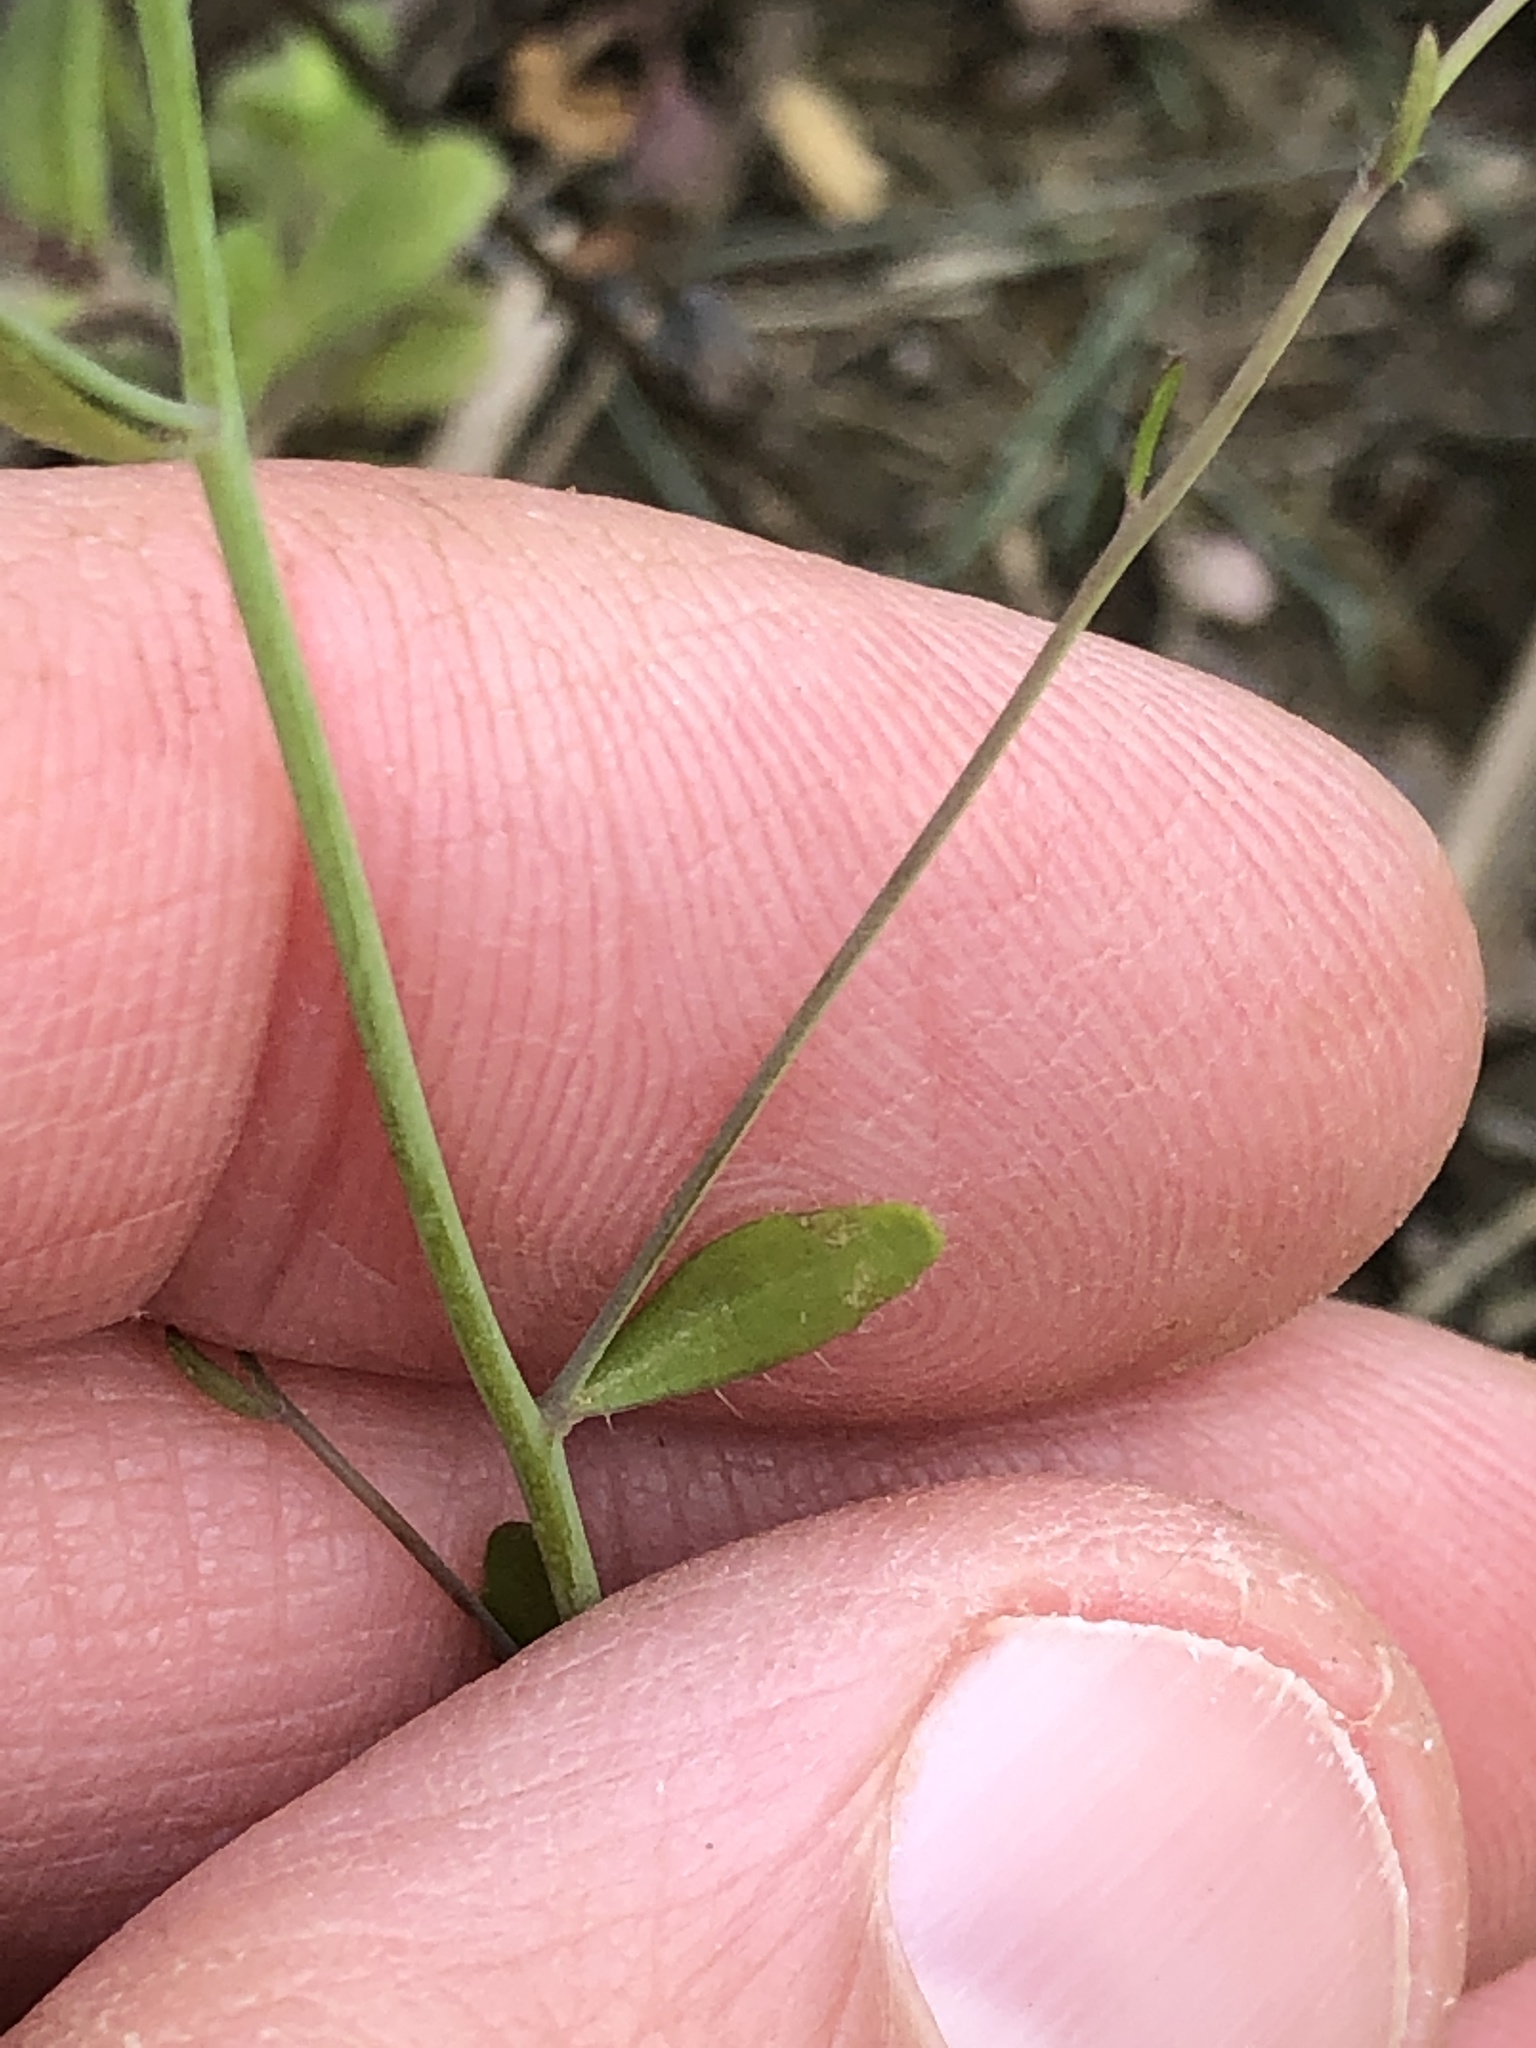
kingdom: Plantae
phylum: Tracheophyta
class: Magnoliopsida
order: Brassicales
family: Brassicaceae
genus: Arabidopsis
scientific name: Arabidopsis thaliana
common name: Thale cress
